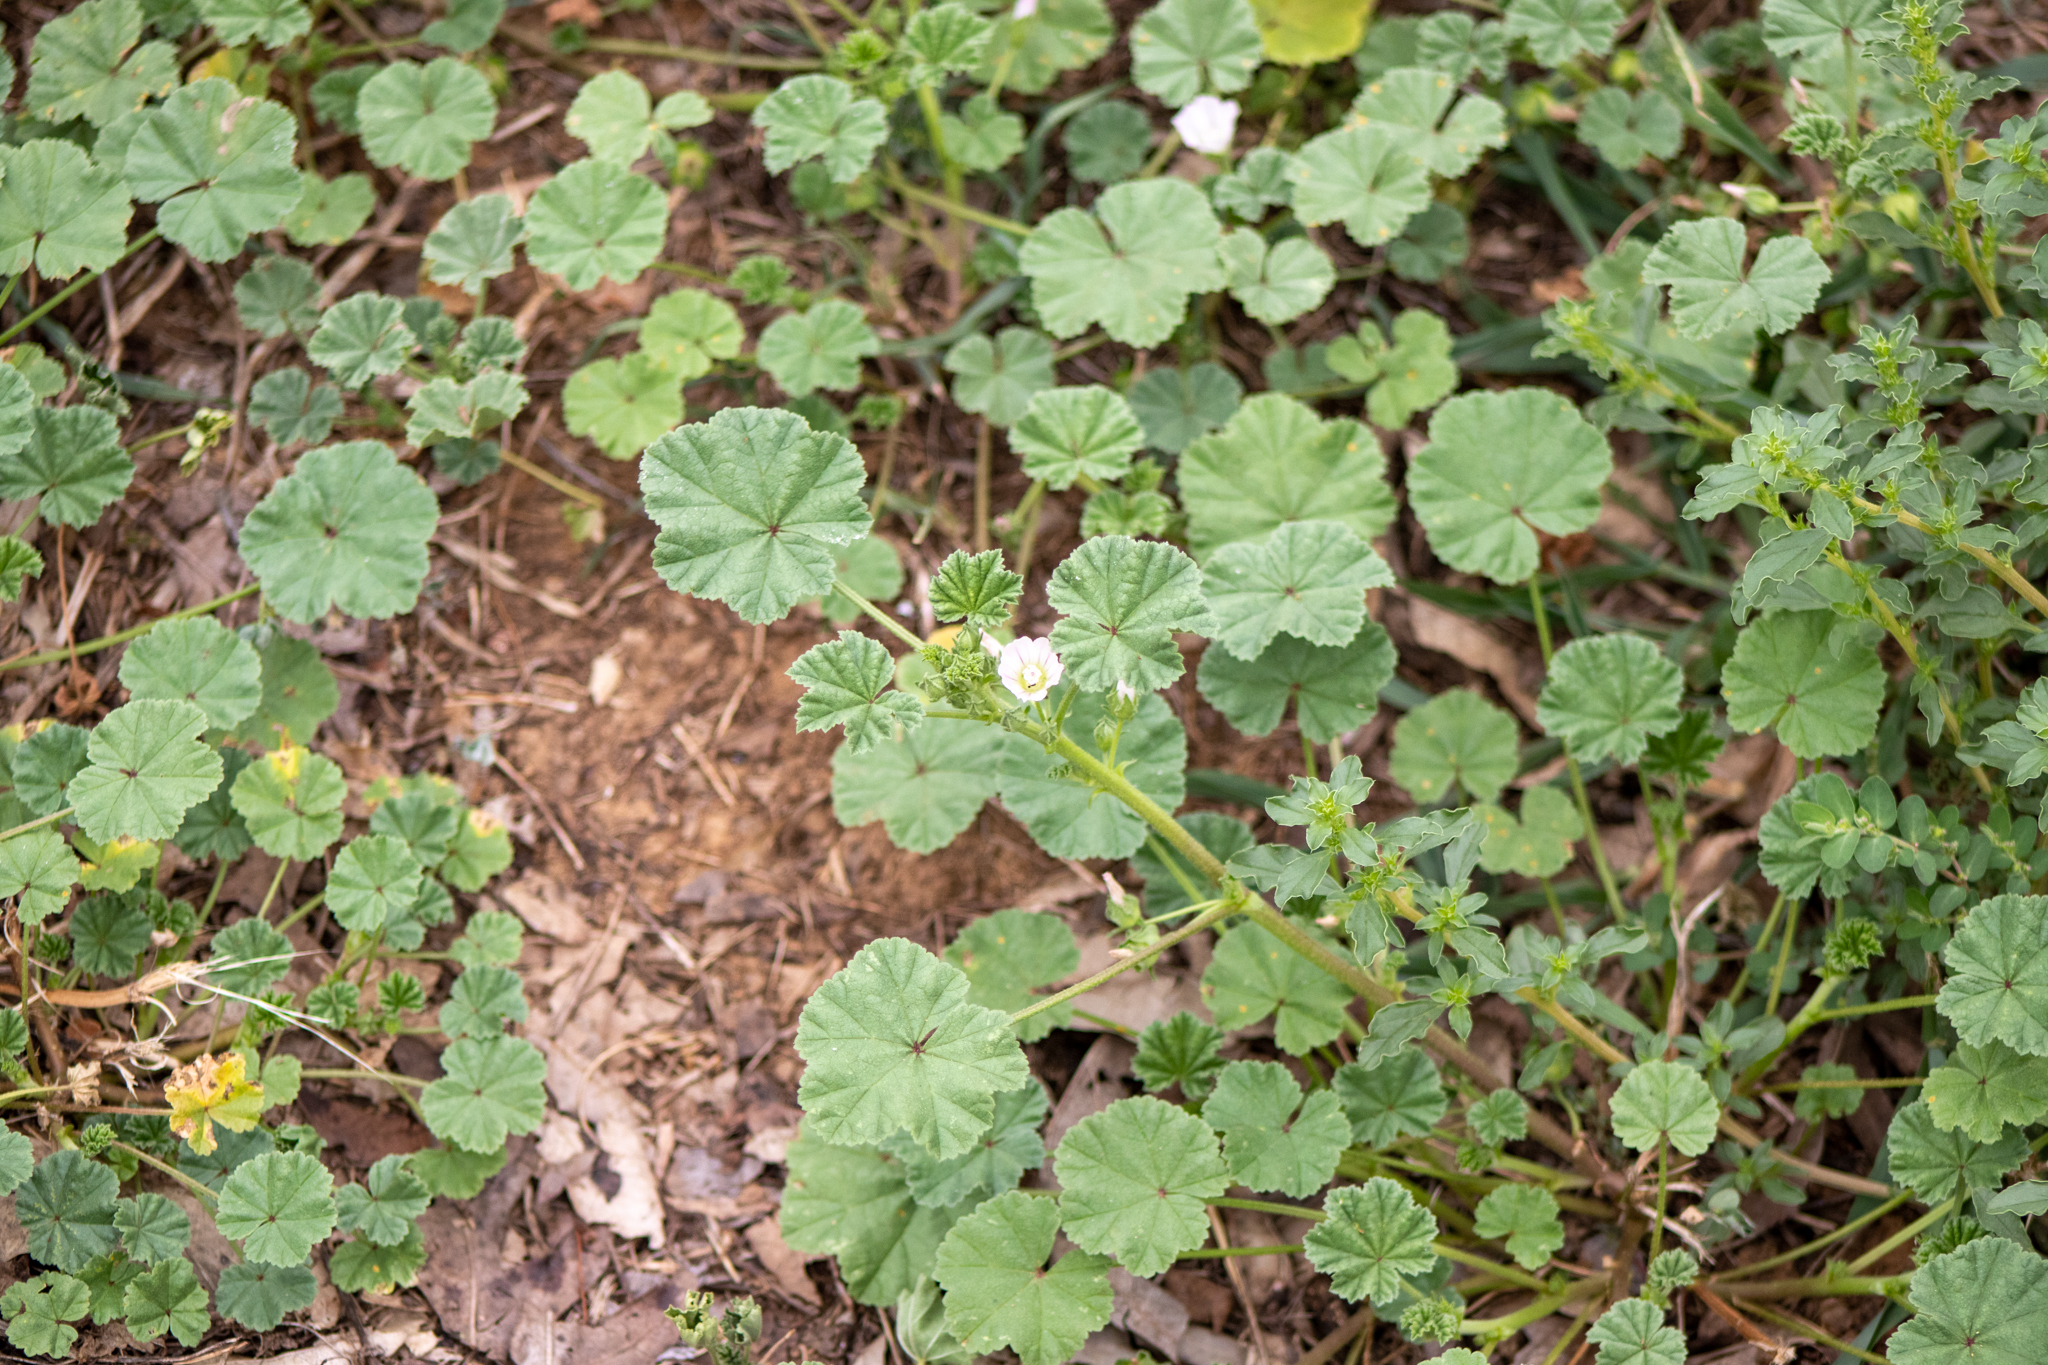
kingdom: Plantae
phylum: Tracheophyta
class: Magnoliopsida
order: Malvales
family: Malvaceae
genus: Malva
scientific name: Malva neglecta
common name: Common mallow
